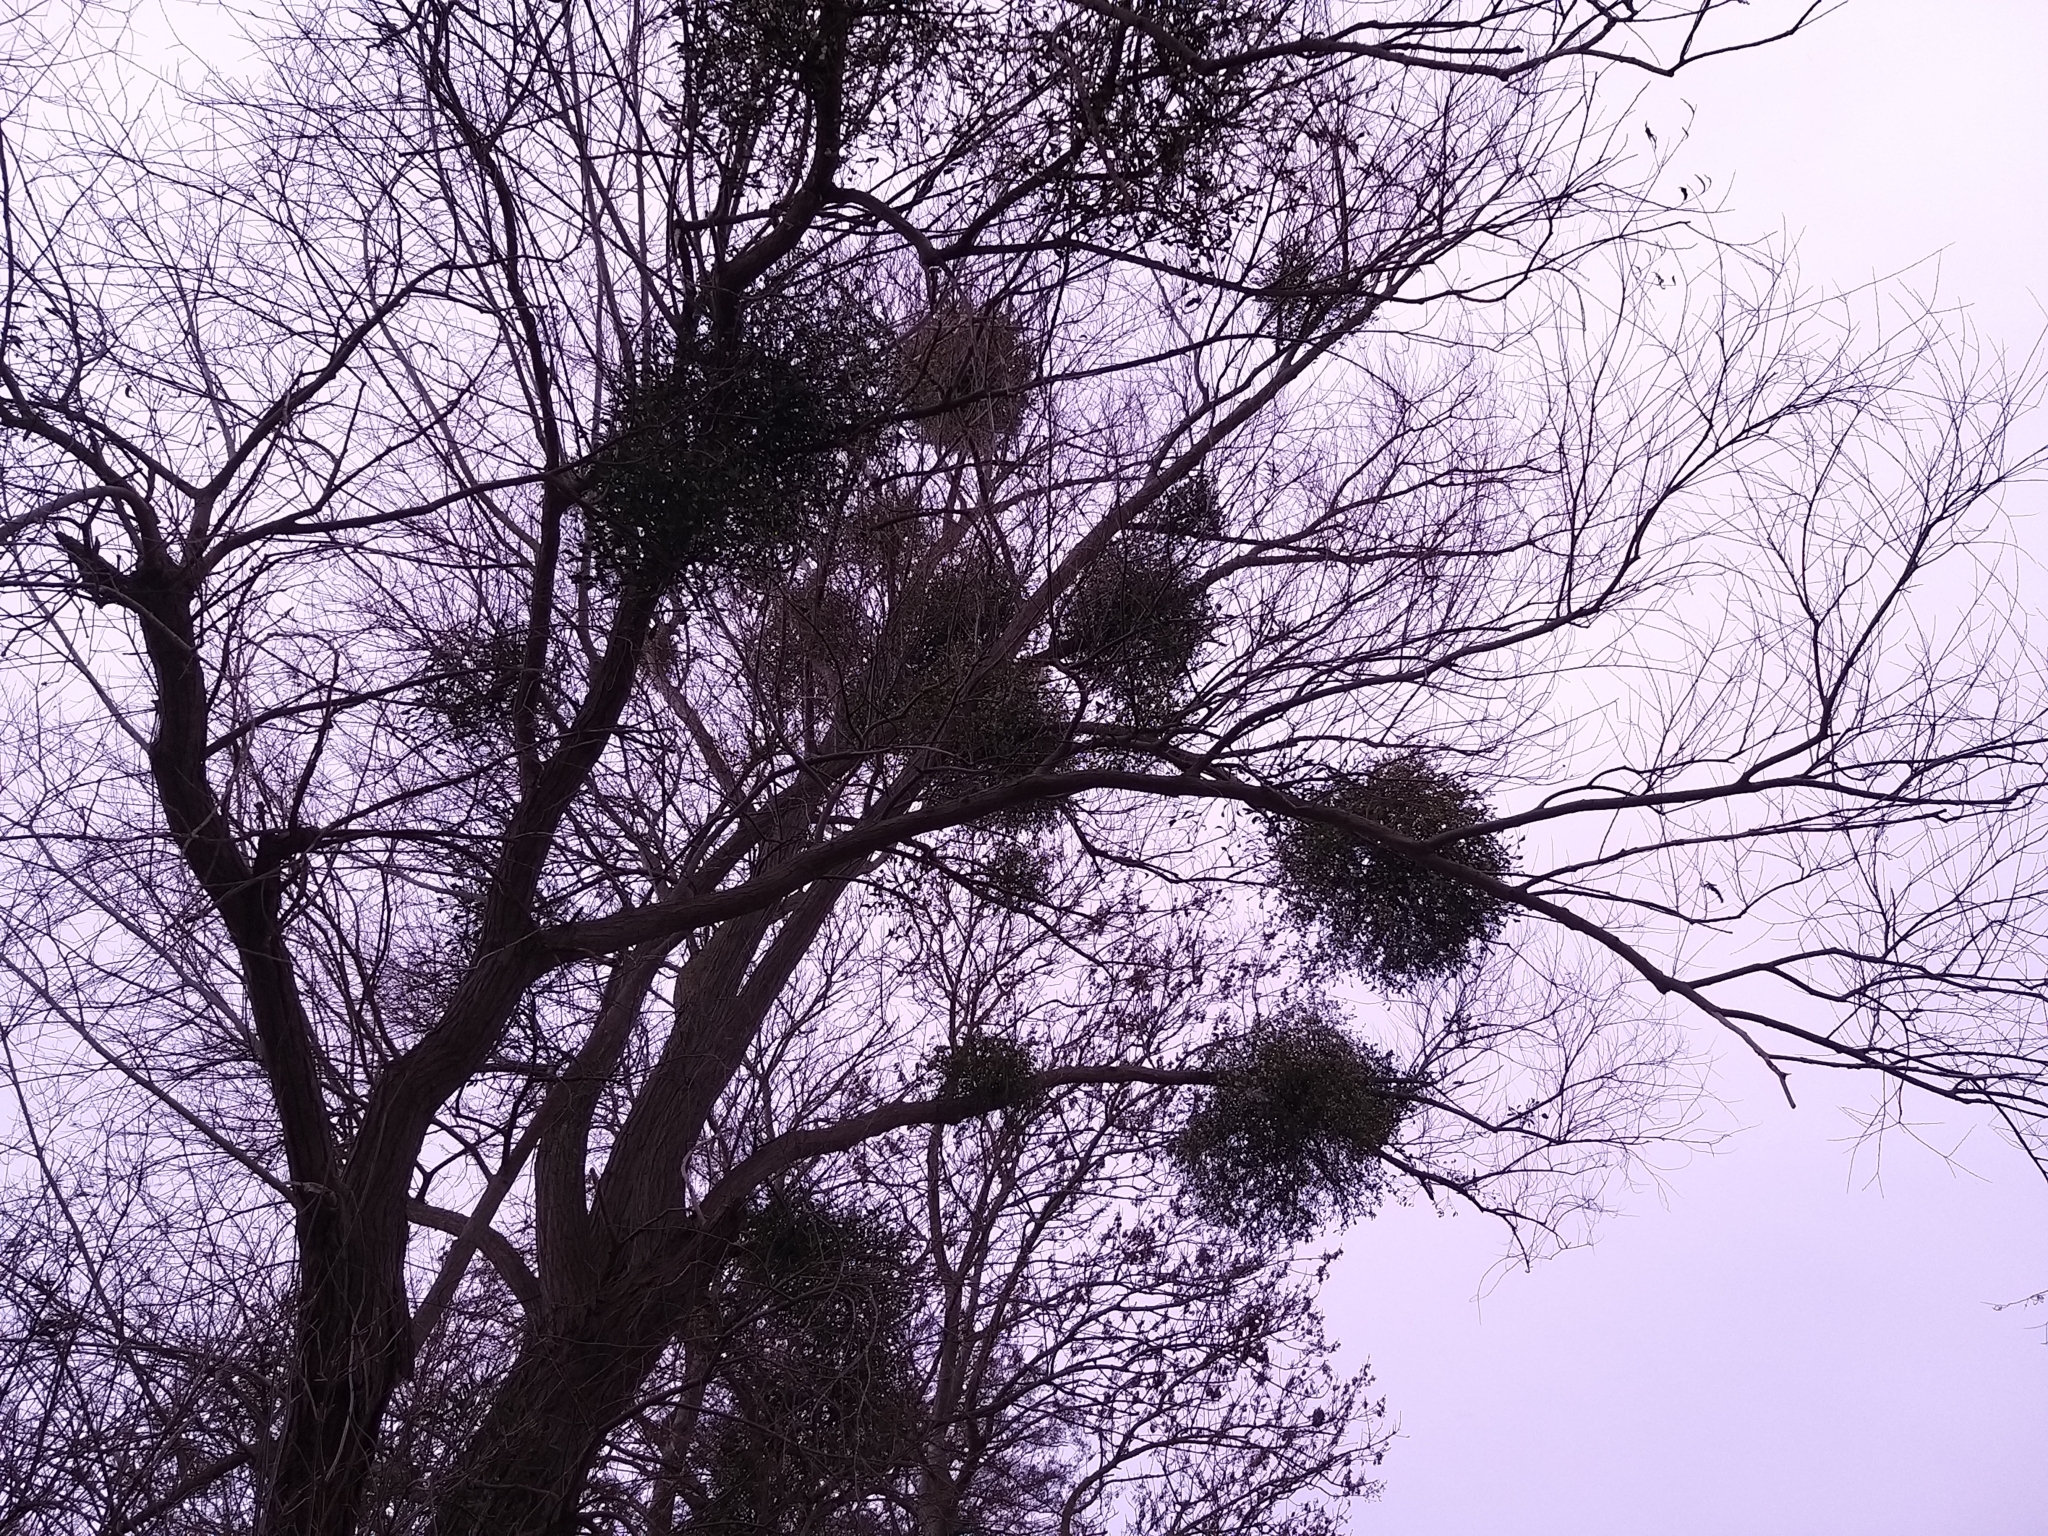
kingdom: Plantae
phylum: Tracheophyta
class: Magnoliopsida
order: Santalales
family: Viscaceae
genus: Viscum
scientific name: Viscum album
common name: Mistletoe
